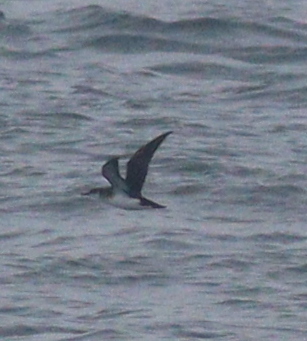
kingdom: Animalia
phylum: Chordata
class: Aves
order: Procellariiformes
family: Procellariidae
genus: Puffinus
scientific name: Puffinus puffinus
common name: Manx shearwater
